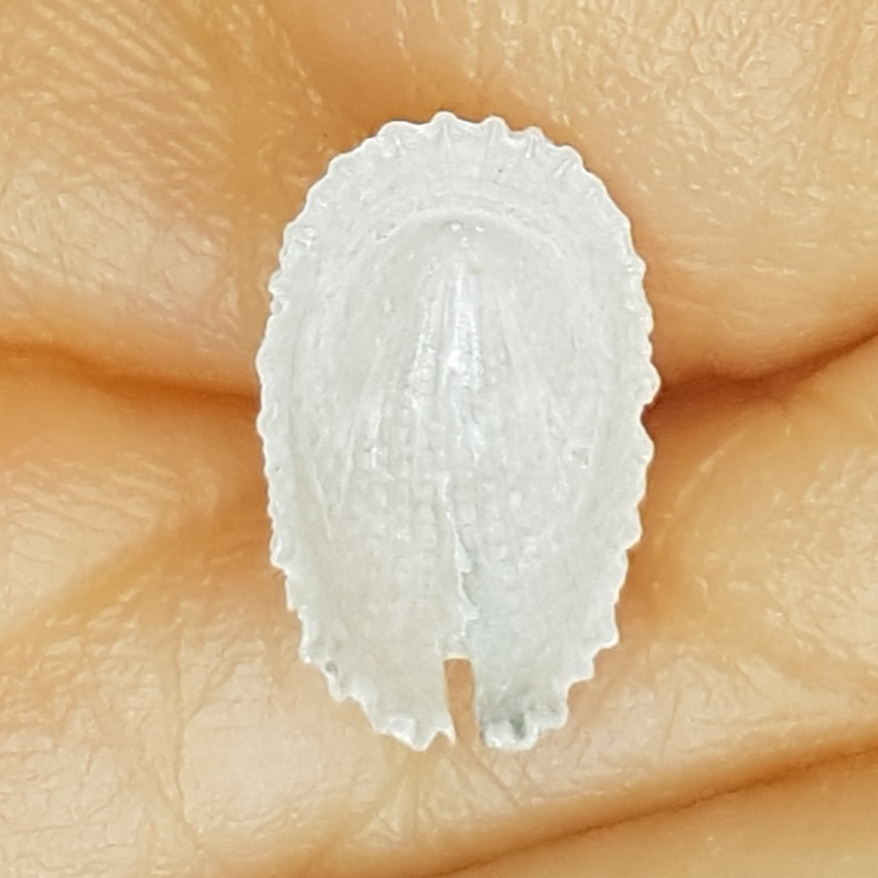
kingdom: Animalia
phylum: Mollusca
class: Gastropoda
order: Lepetellida
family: Fissurellidae
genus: Emarginula
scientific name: Emarginula octaviana
